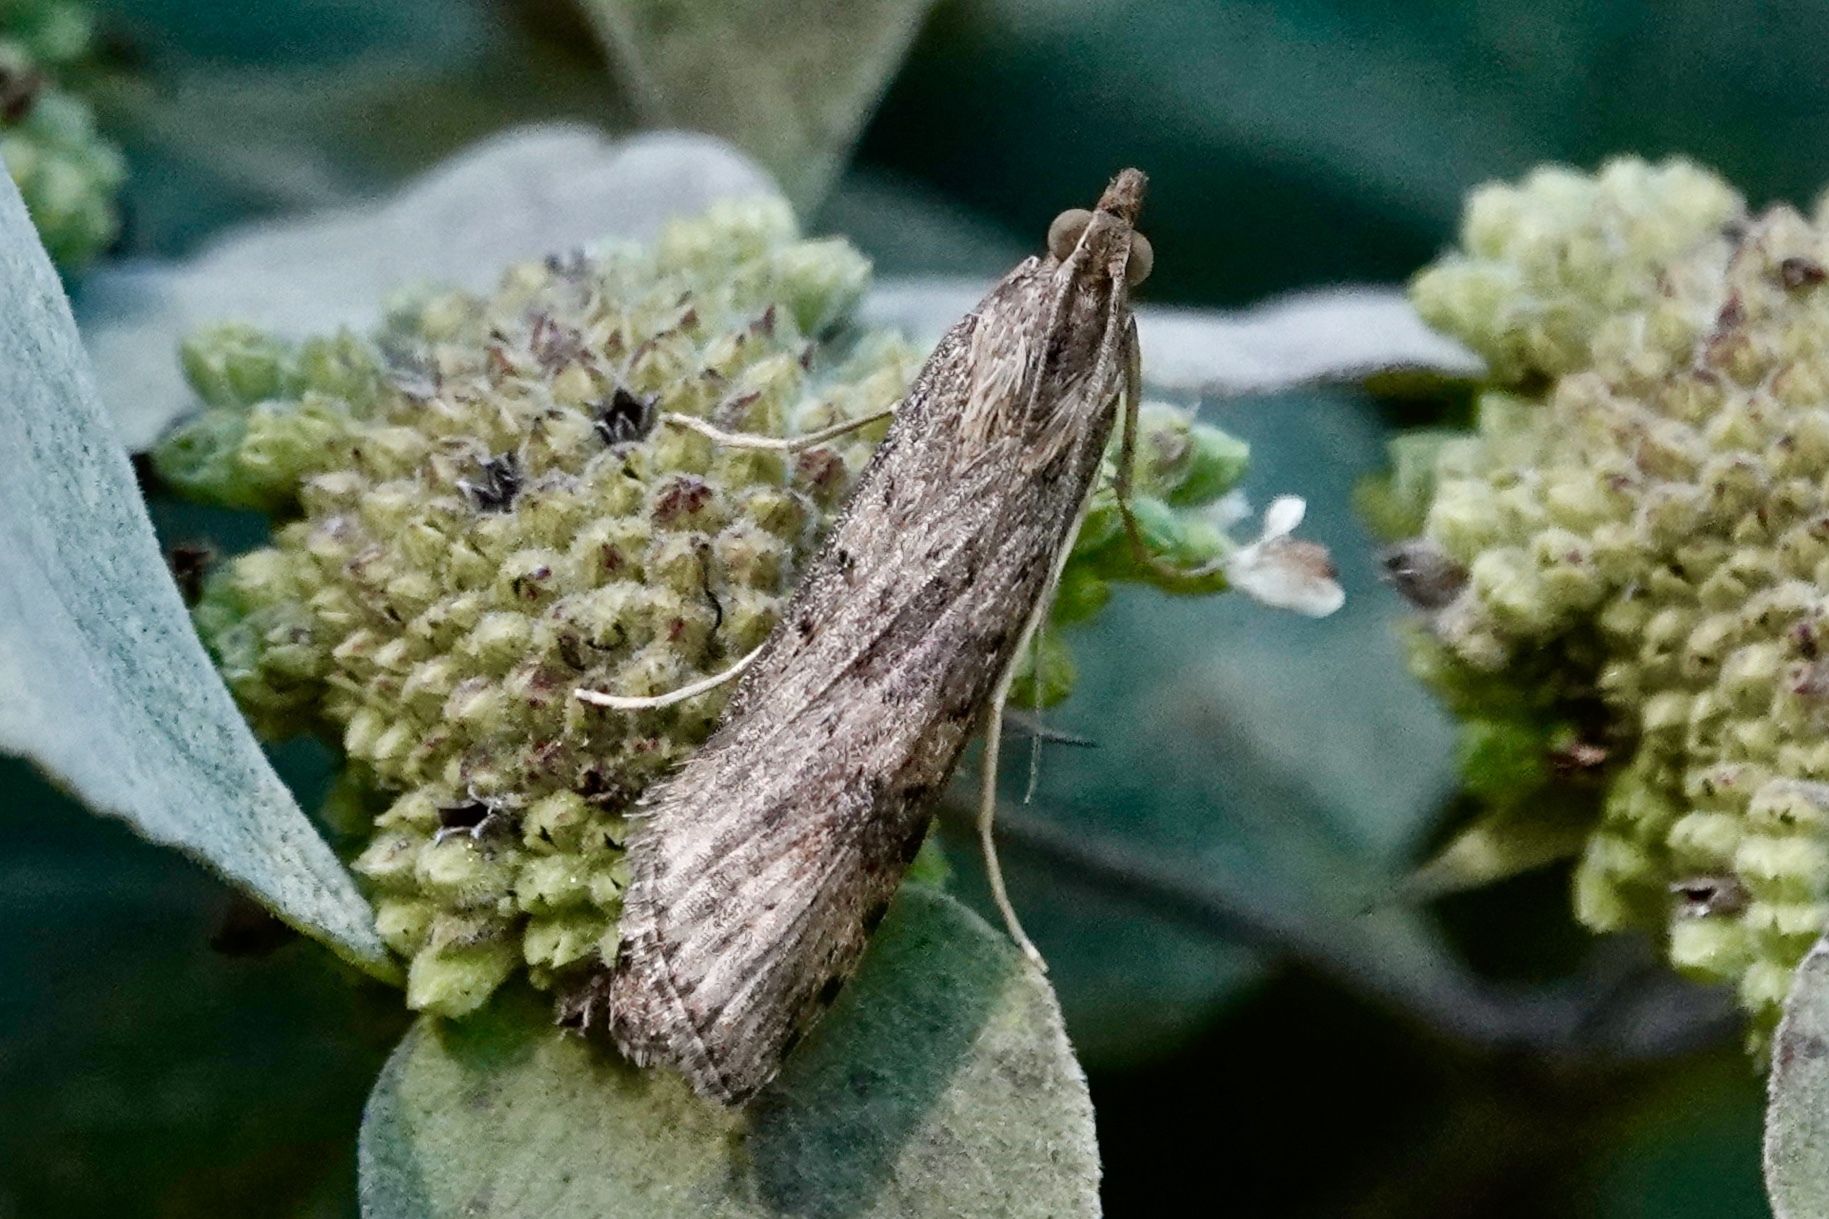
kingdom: Animalia
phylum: Arthropoda
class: Insecta
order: Lepidoptera
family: Crambidae
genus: Nomophila
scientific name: Nomophila nearctica
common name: American rush veneer
